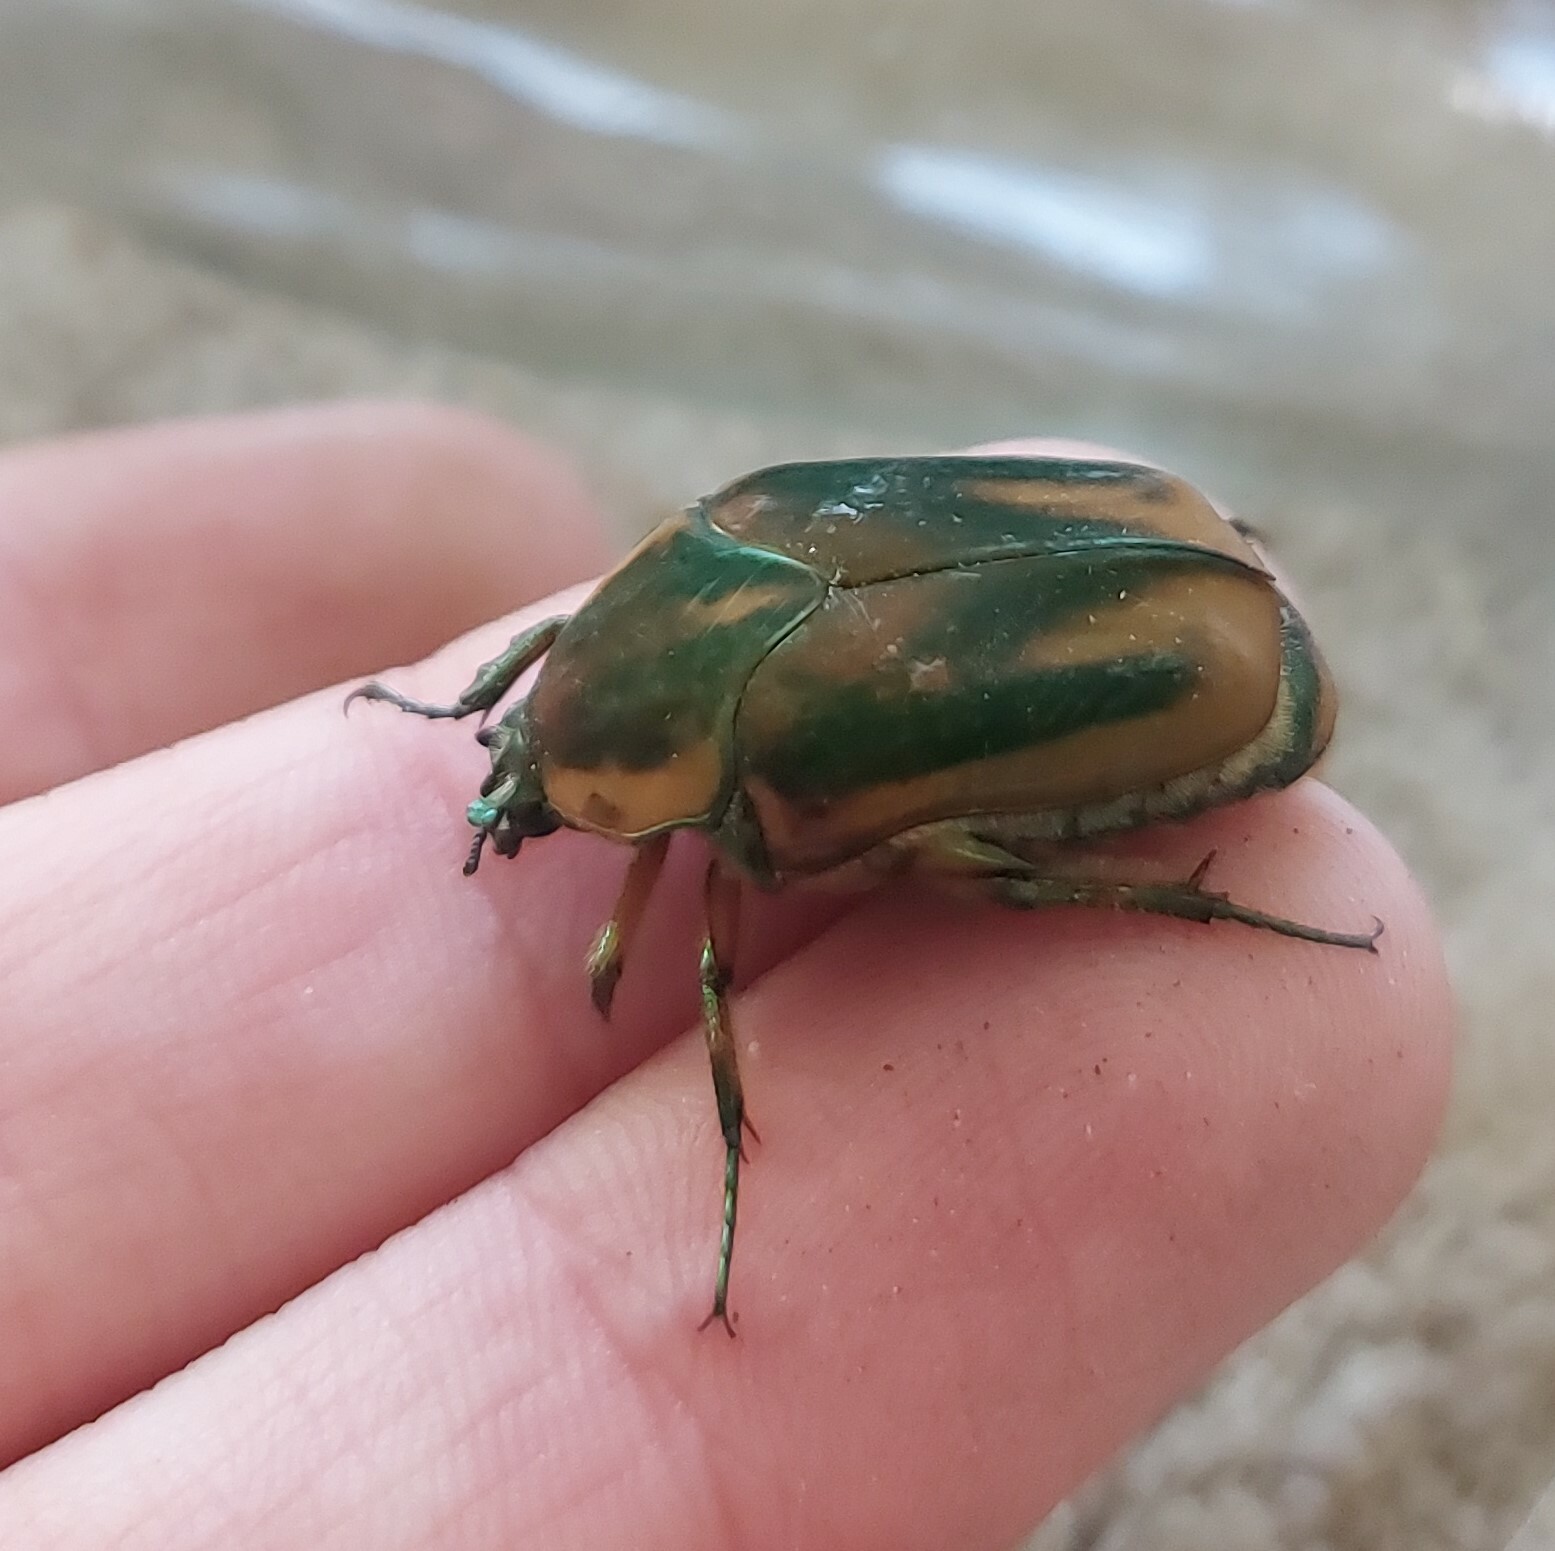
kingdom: Animalia
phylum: Arthropoda
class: Insecta
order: Coleoptera
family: Scarabaeidae
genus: Cotinis
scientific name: Cotinis nitida
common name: Common green june beetle
